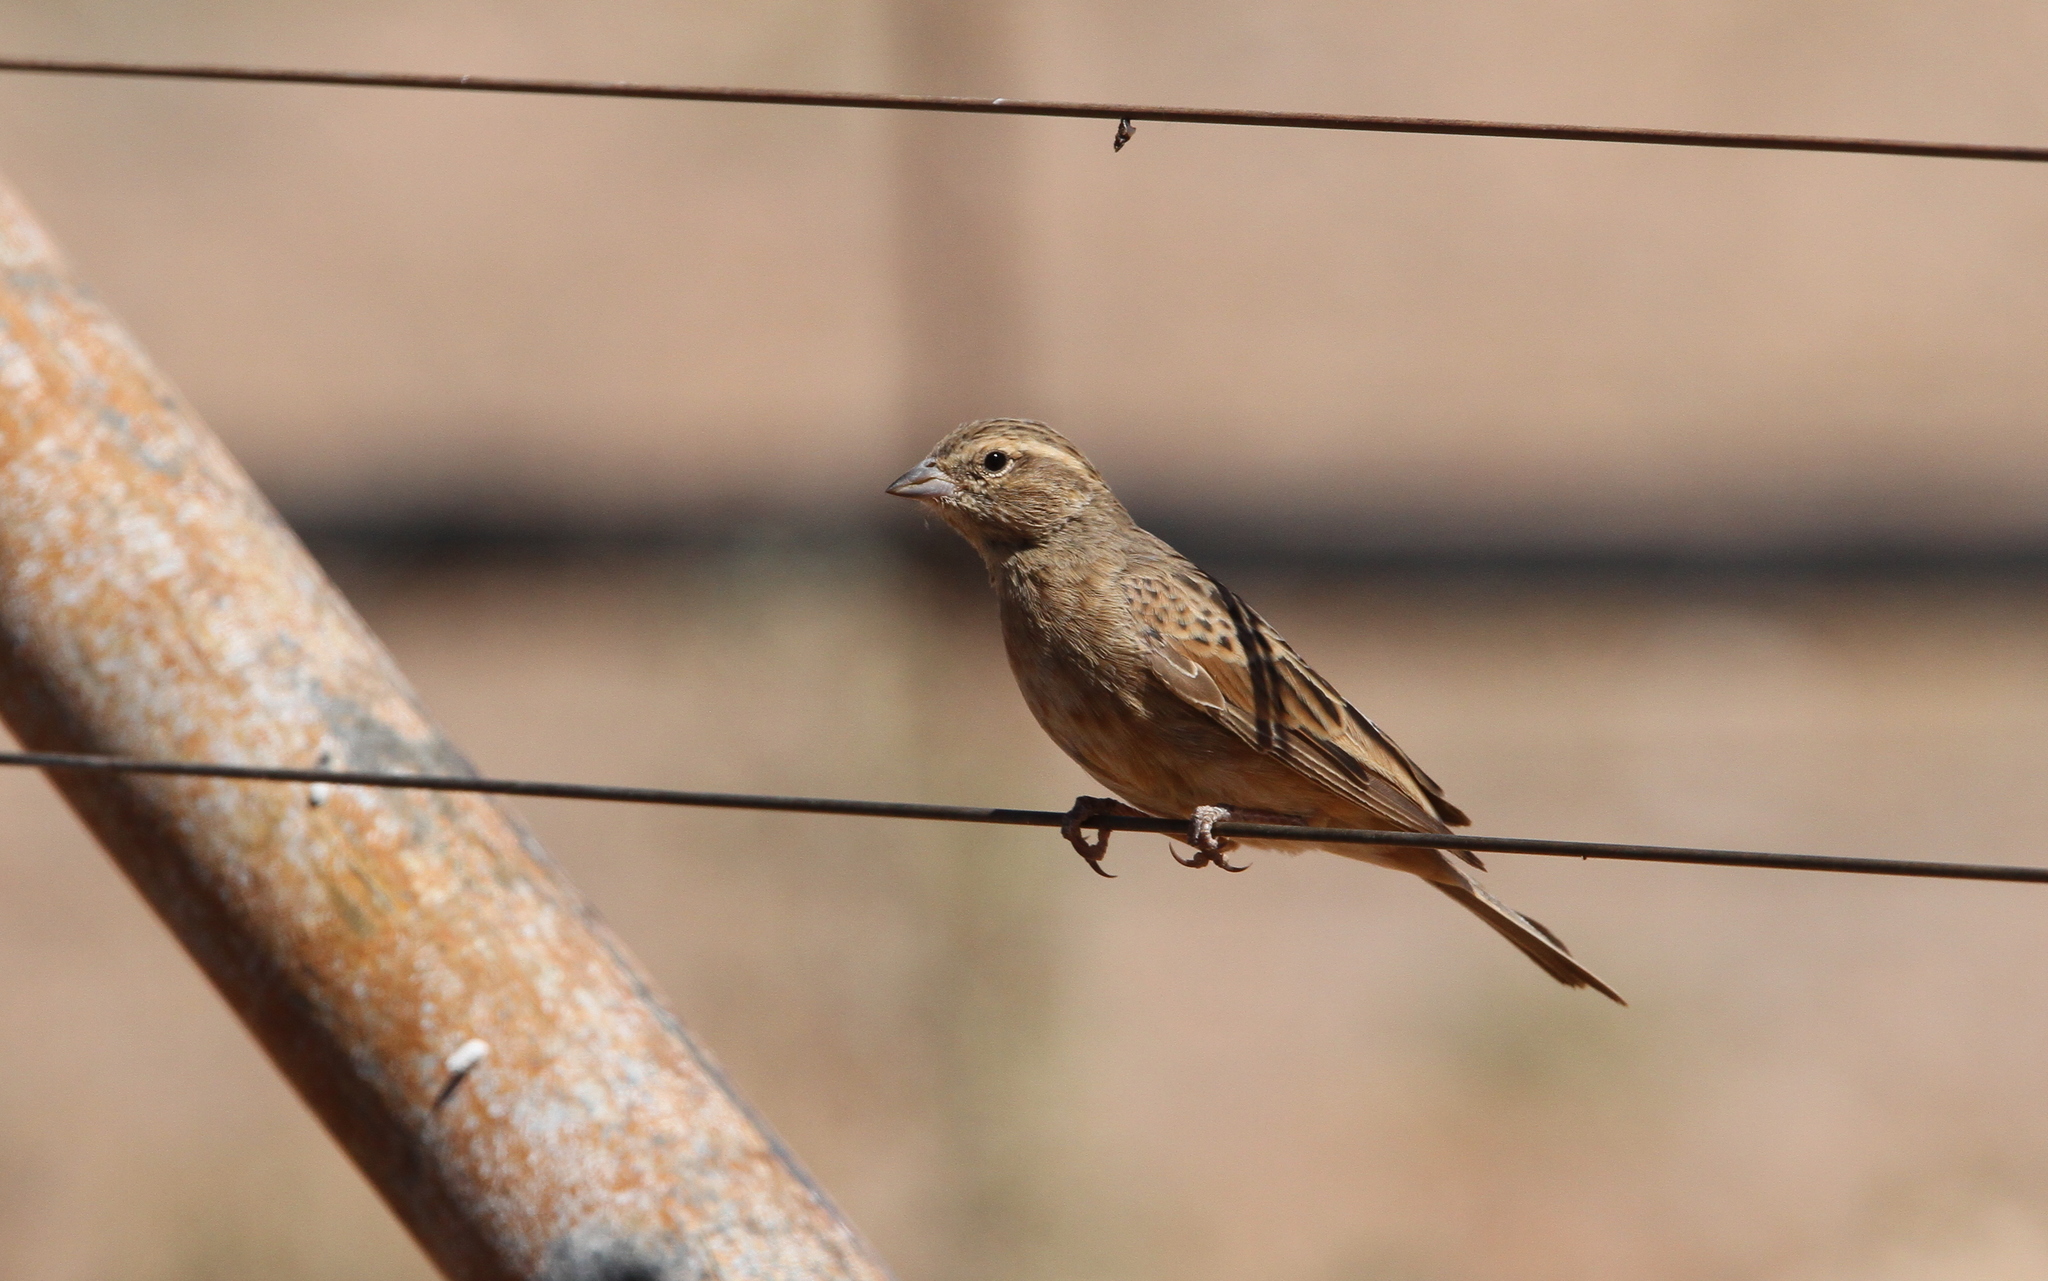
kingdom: Animalia
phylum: Chordata
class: Aves
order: Passeriformes
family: Emberizidae
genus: Emberiza
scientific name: Emberiza impetuani
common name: Lark-like bunting
